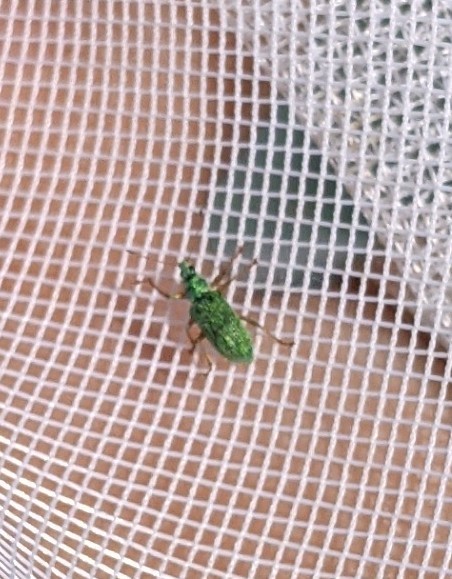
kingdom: Animalia
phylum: Arthropoda
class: Insecta
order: Coleoptera
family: Curculionidae
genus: Polydrusus
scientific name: Polydrusus formosus
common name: Weevil
